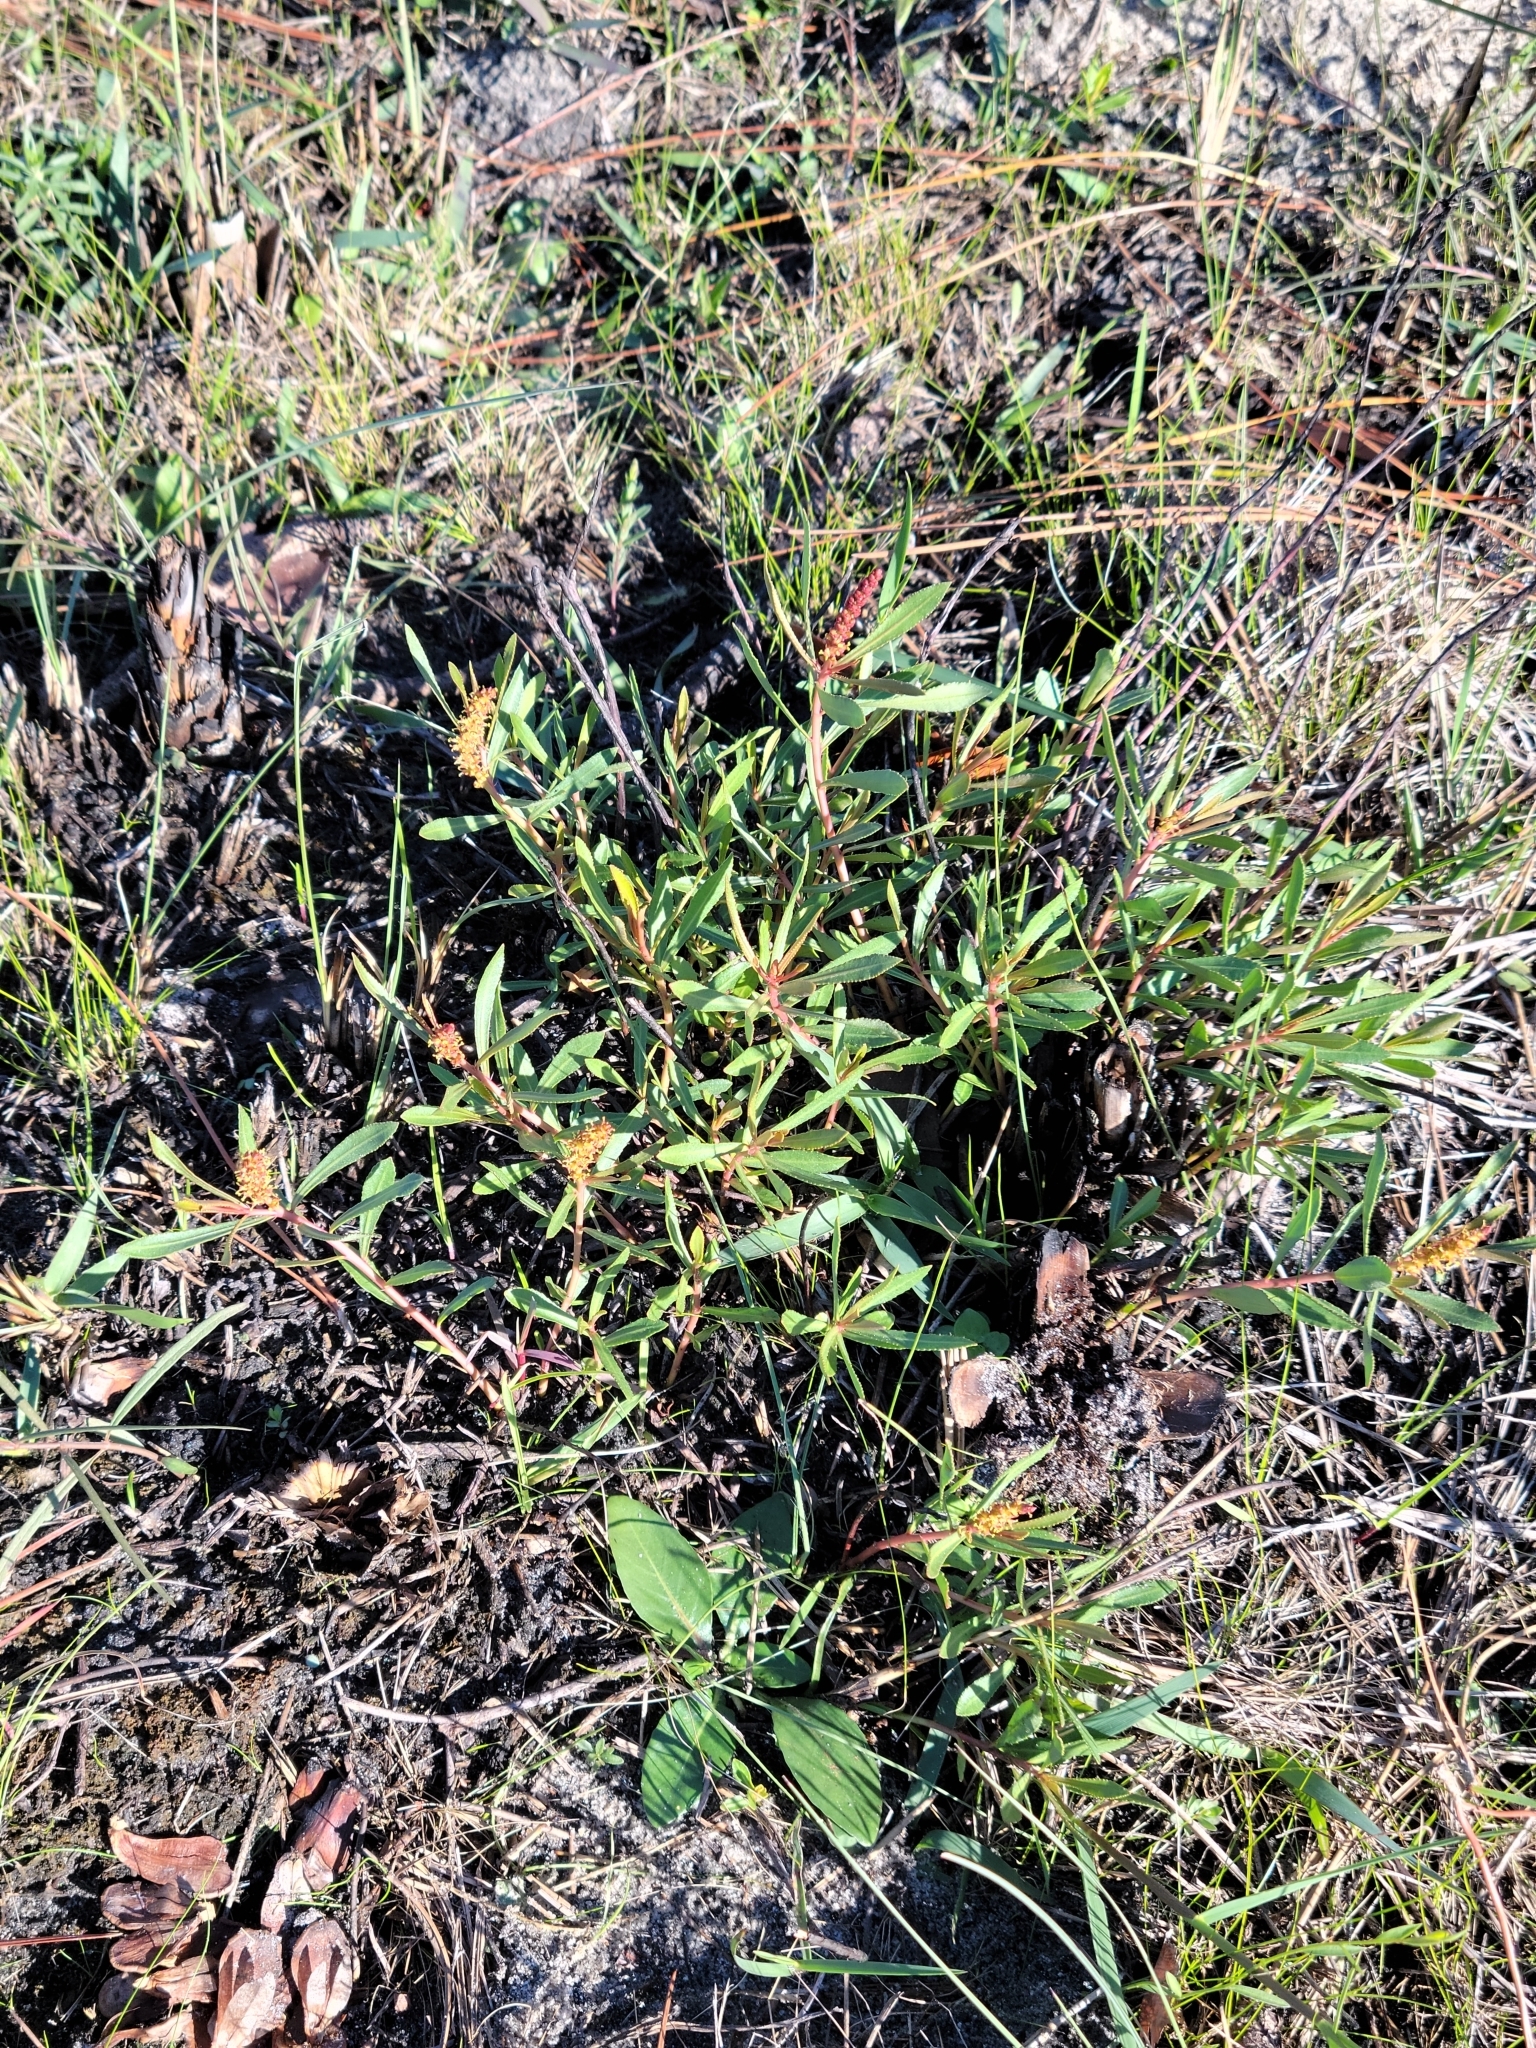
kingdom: Plantae
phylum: Tracheophyta
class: Magnoliopsida
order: Malpighiales
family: Euphorbiaceae
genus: Stillingia
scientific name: Stillingia sylvatica
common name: Queen's-delight
